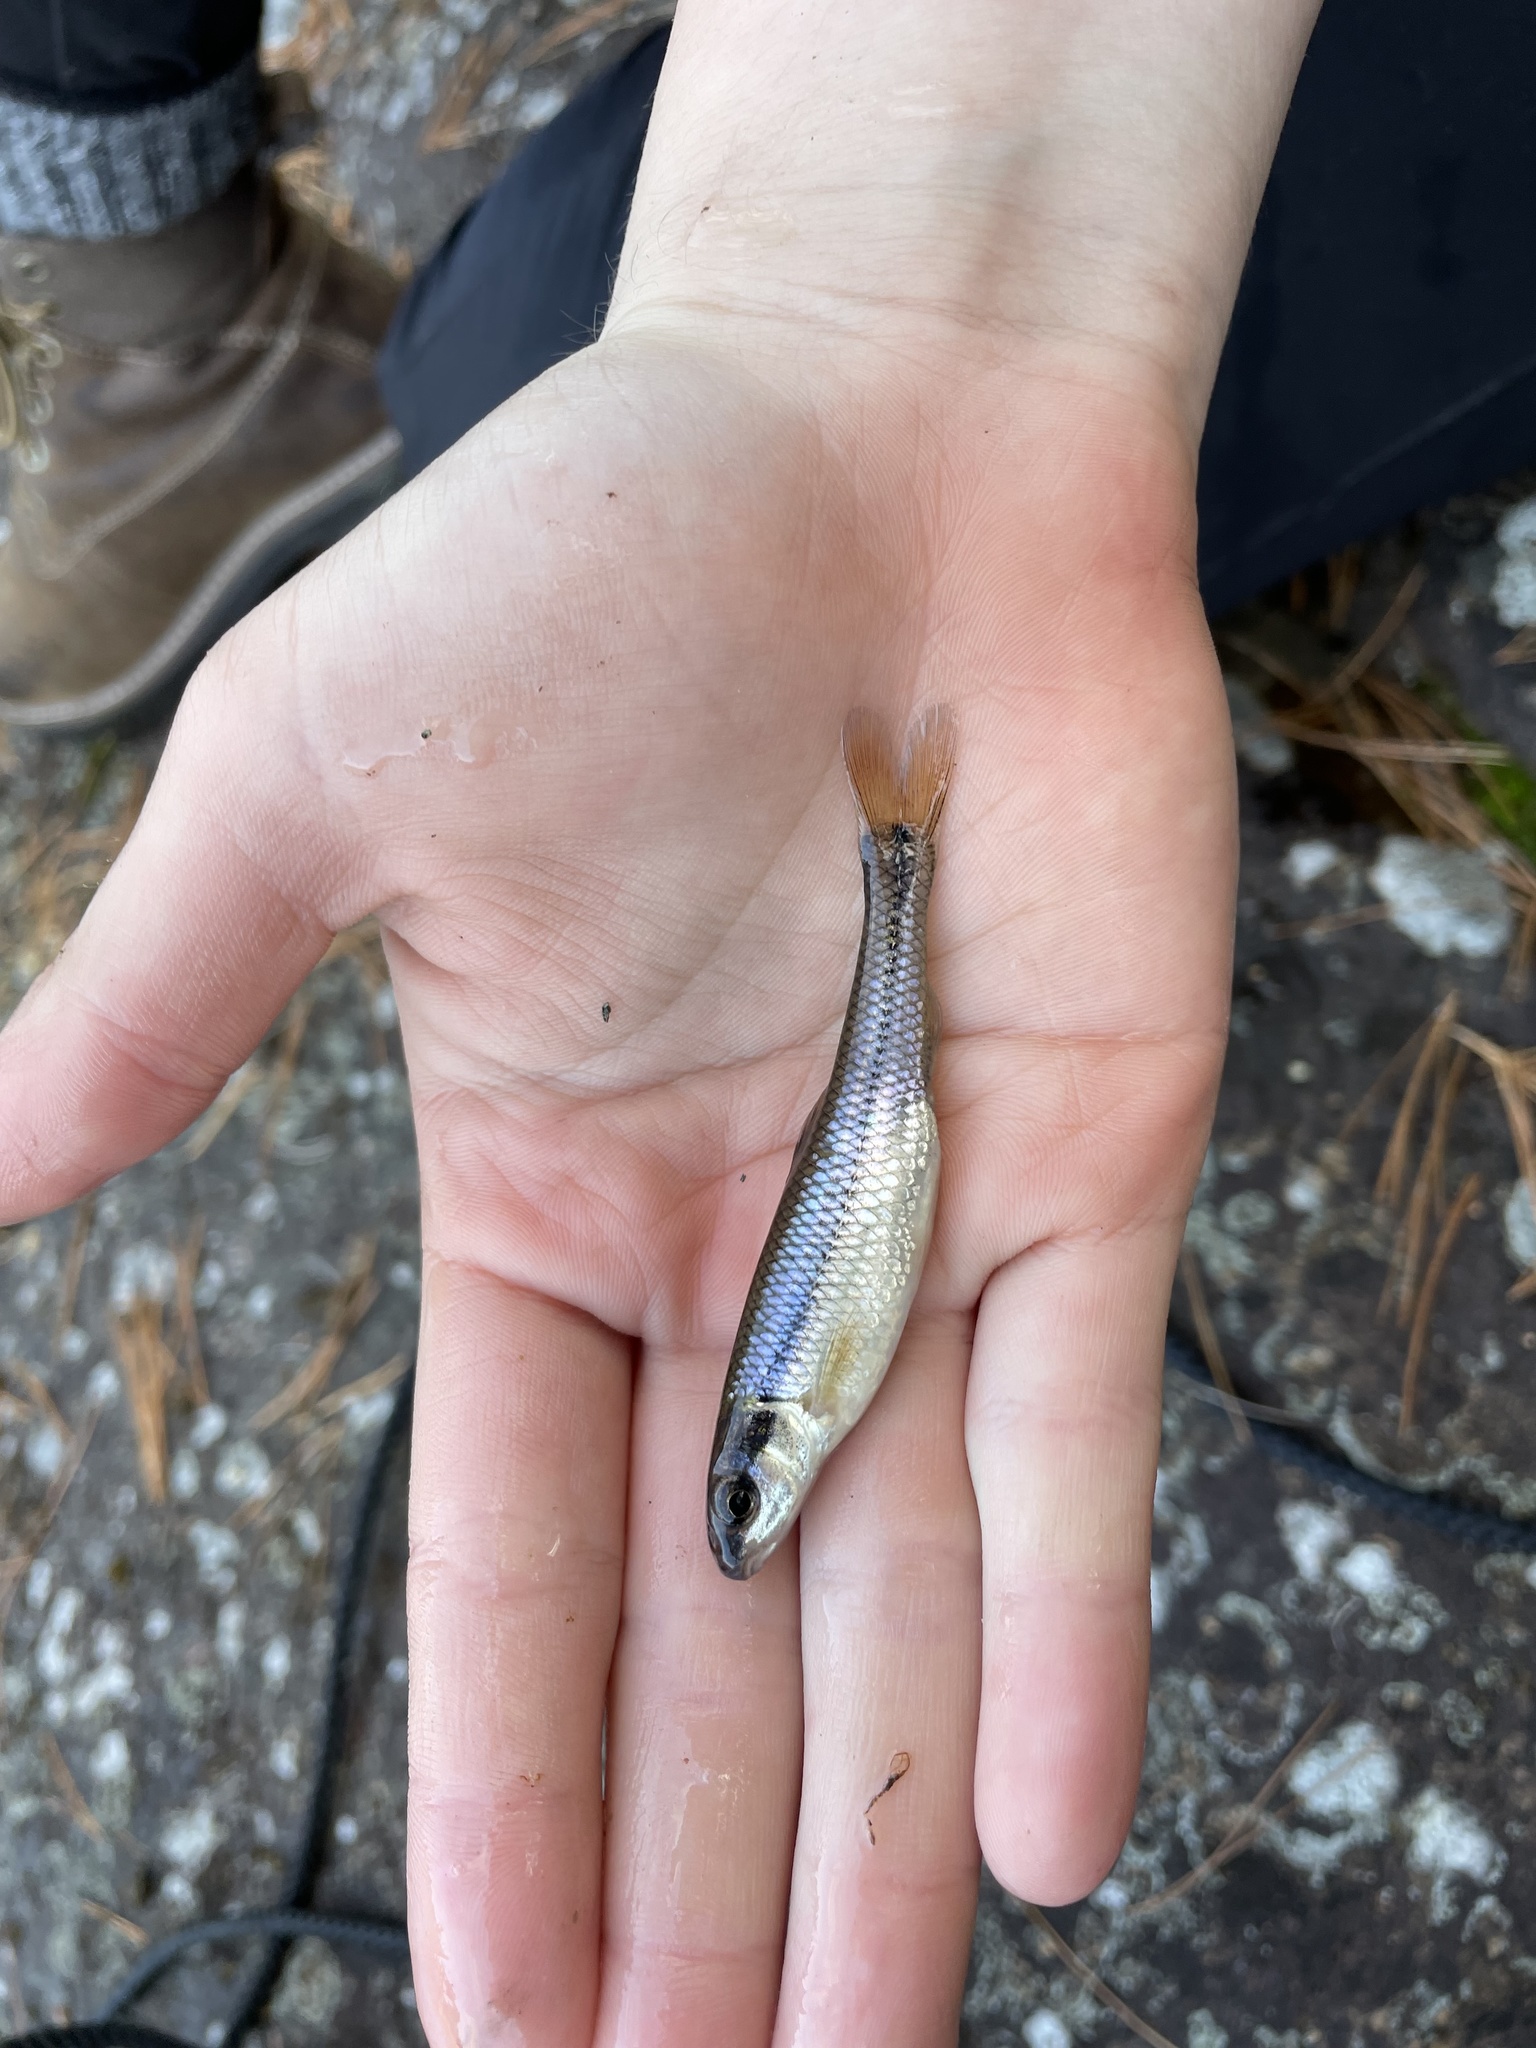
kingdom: Animalia
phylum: Chordata
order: Cypriniformes
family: Cyprinidae
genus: Pimephales
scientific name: Pimephales notatus
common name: Bluntnose minnow
